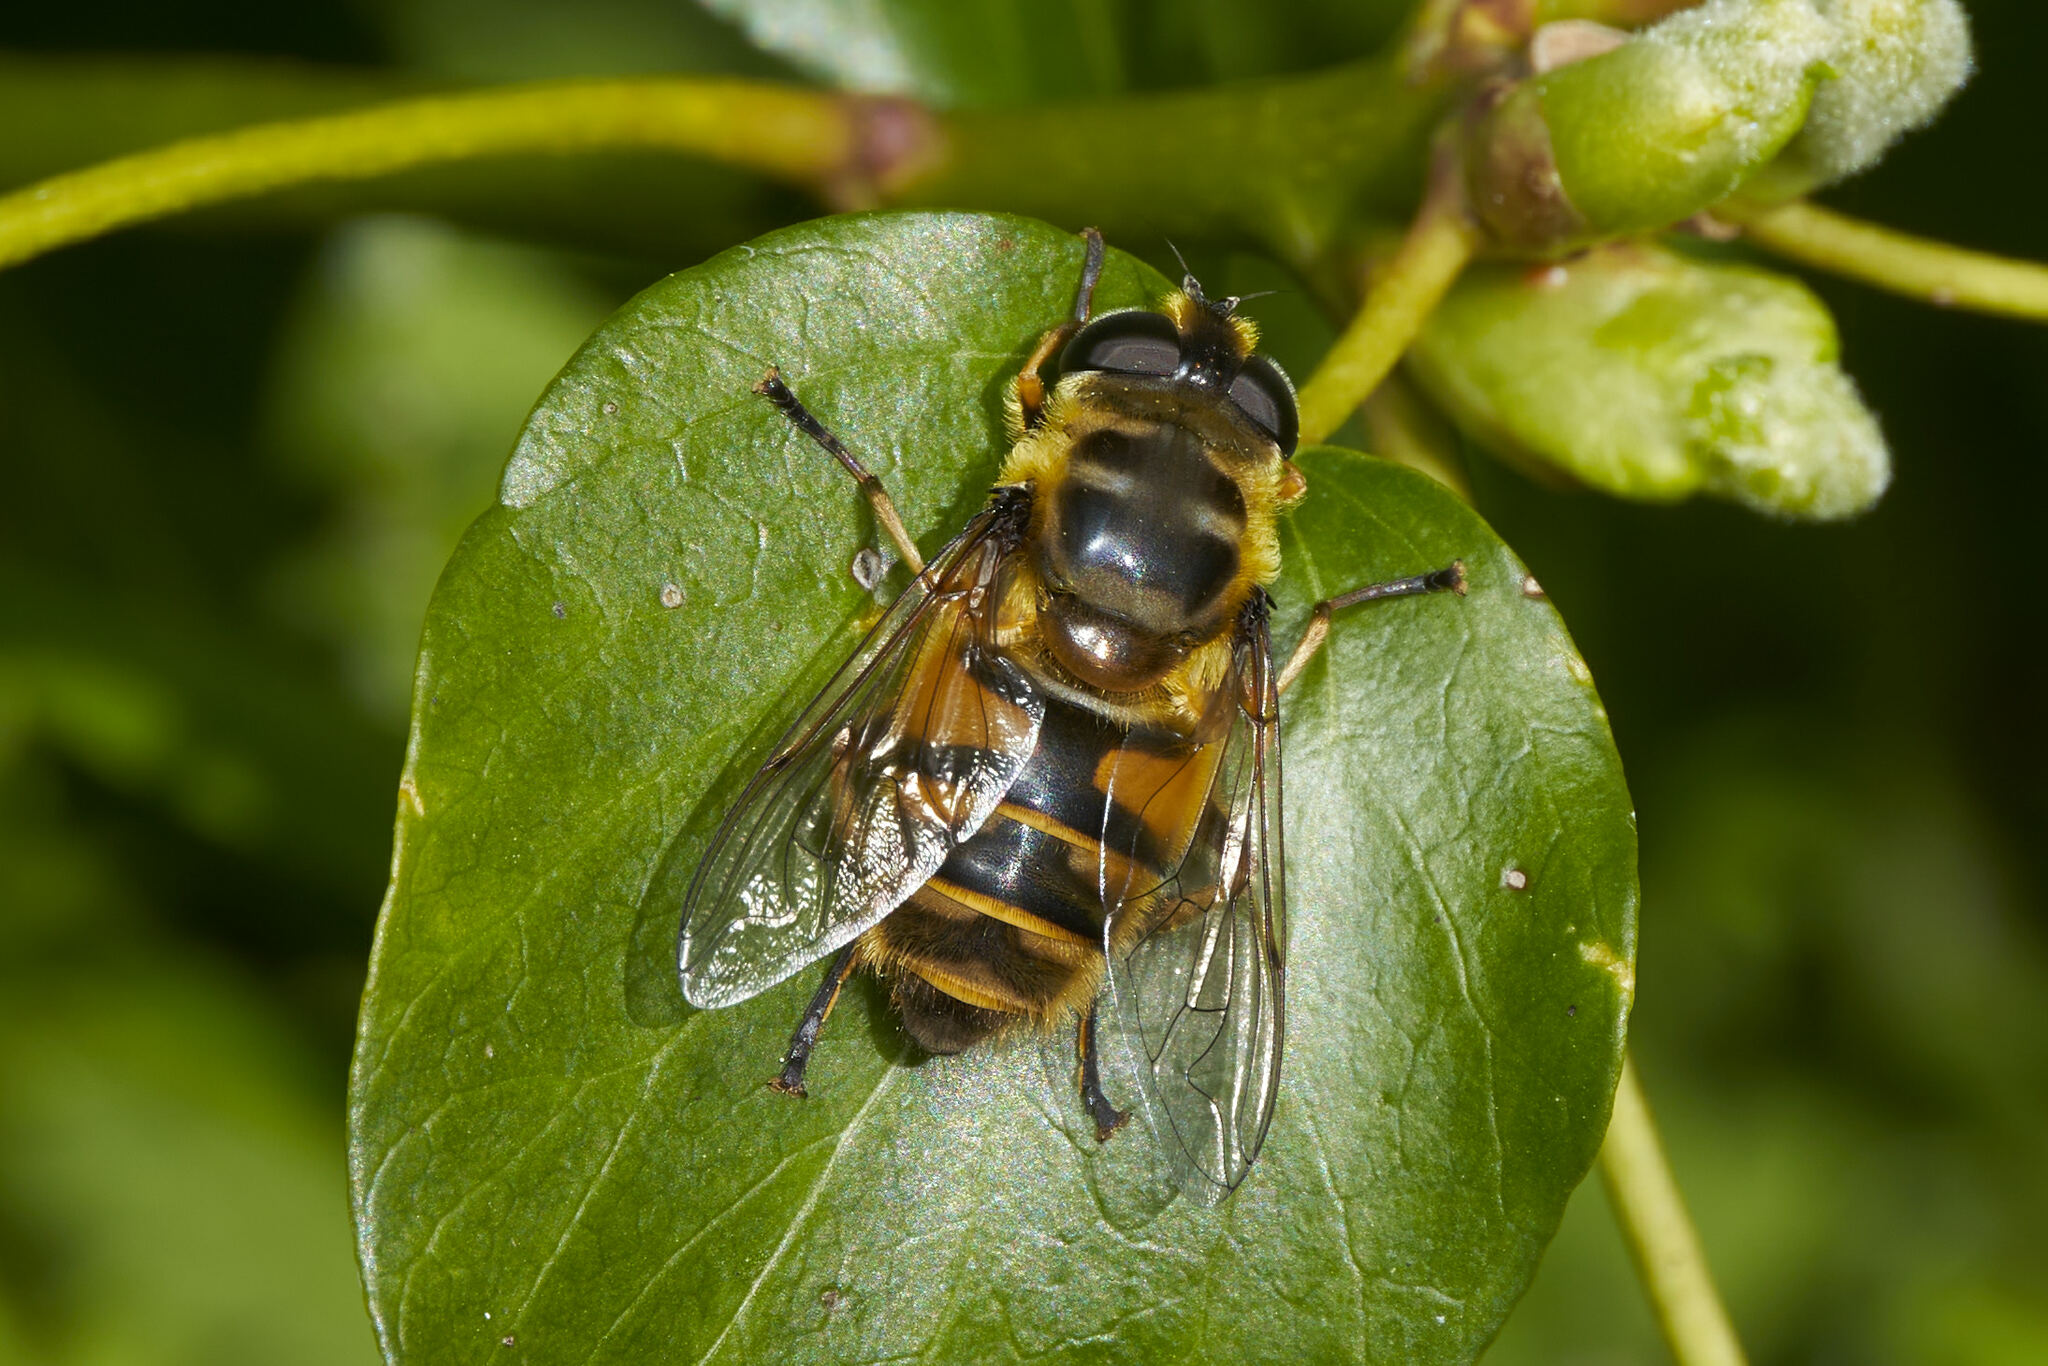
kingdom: Animalia
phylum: Arthropoda
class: Insecta
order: Diptera
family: Syrphidae
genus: Myathropa
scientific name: Myathropa florea
